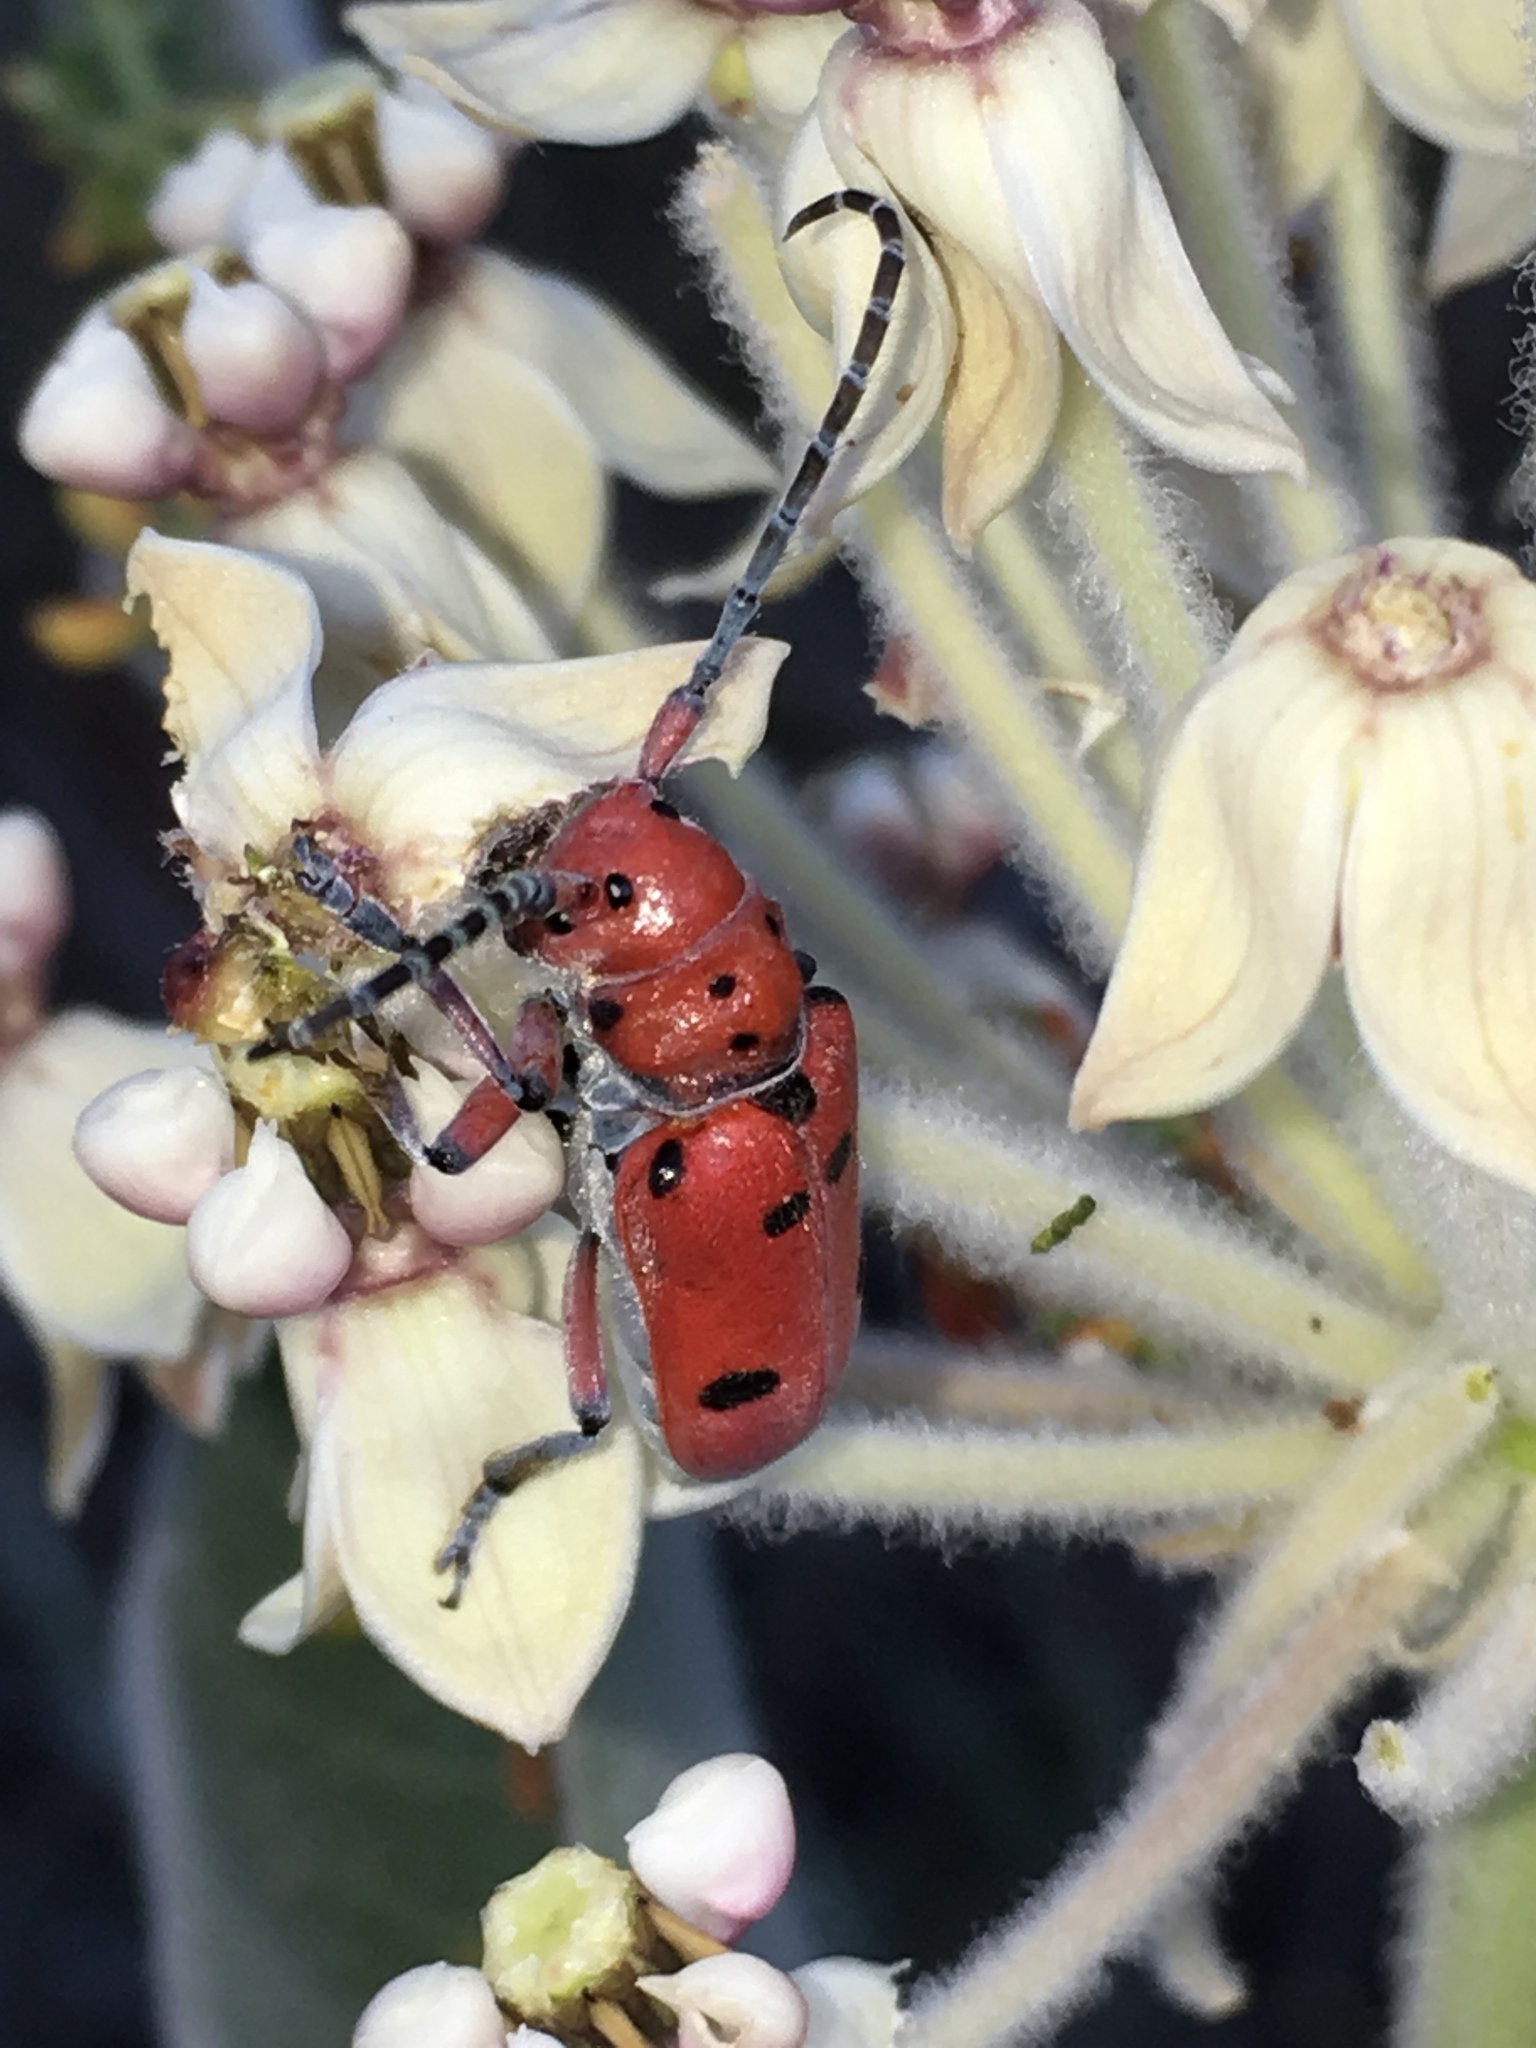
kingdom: Animalia
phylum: Arthropoda
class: Insecta
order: Coleoptera
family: Cerambycidae
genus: Tetraopes
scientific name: Tetraopes sublaevis
